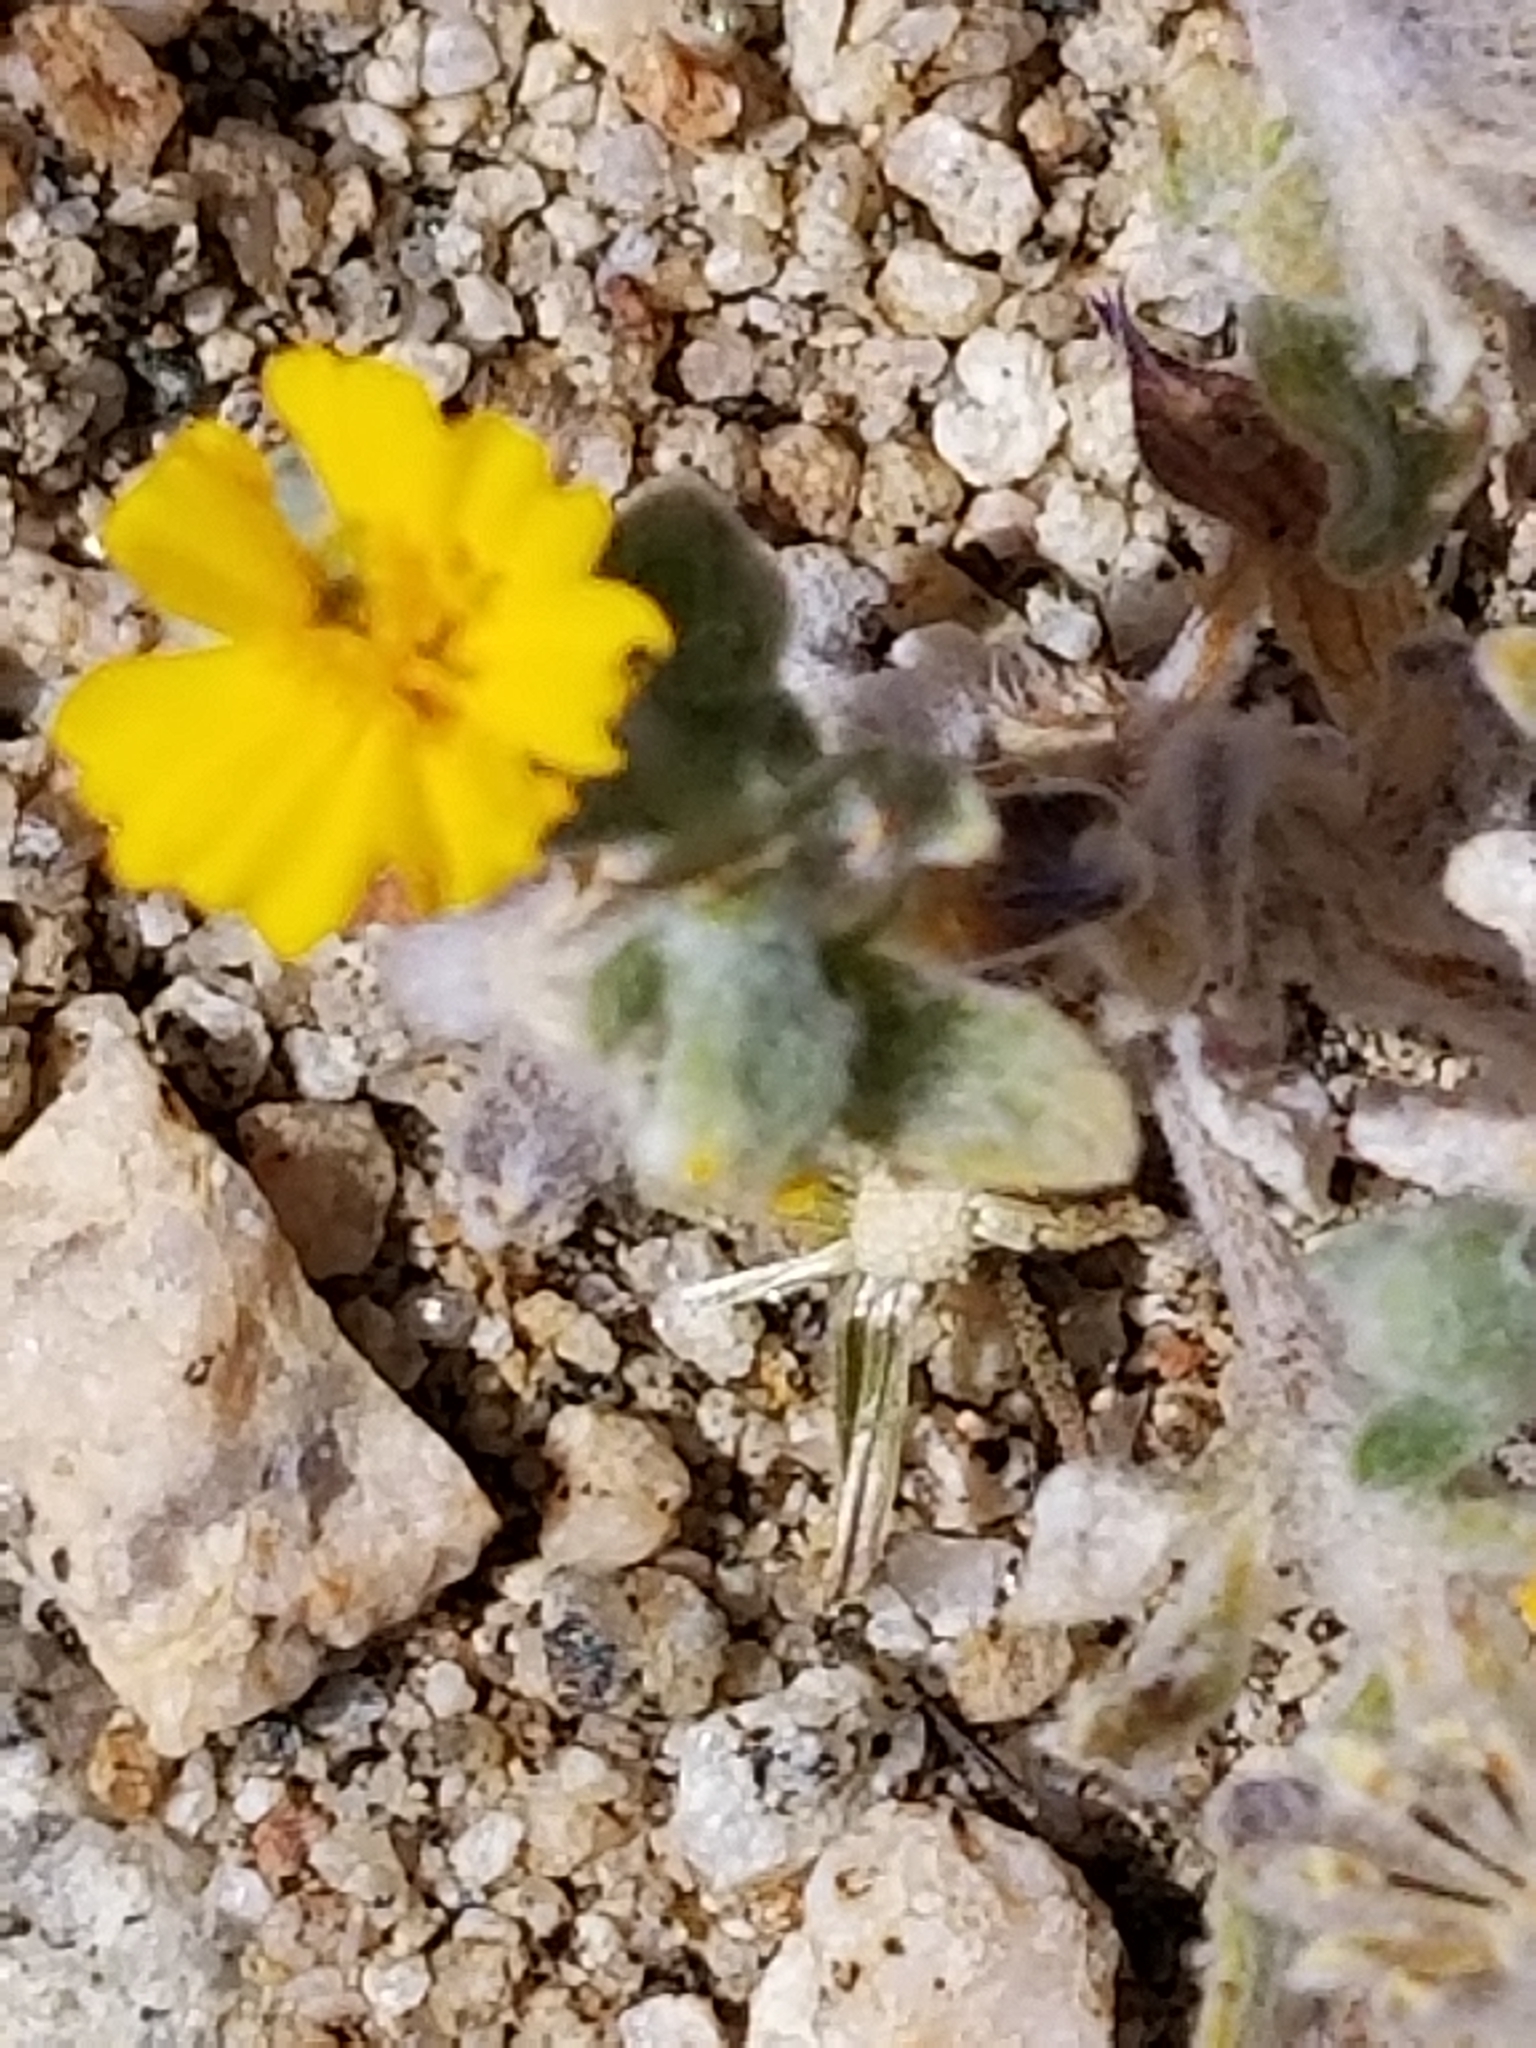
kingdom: Plantae
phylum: Tracheophyta
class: Magnoliopsida
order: Asterales
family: Asteraceae
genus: Eriophyllum
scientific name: Eriophyllum wallacei
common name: Wallace's woolly daisy
